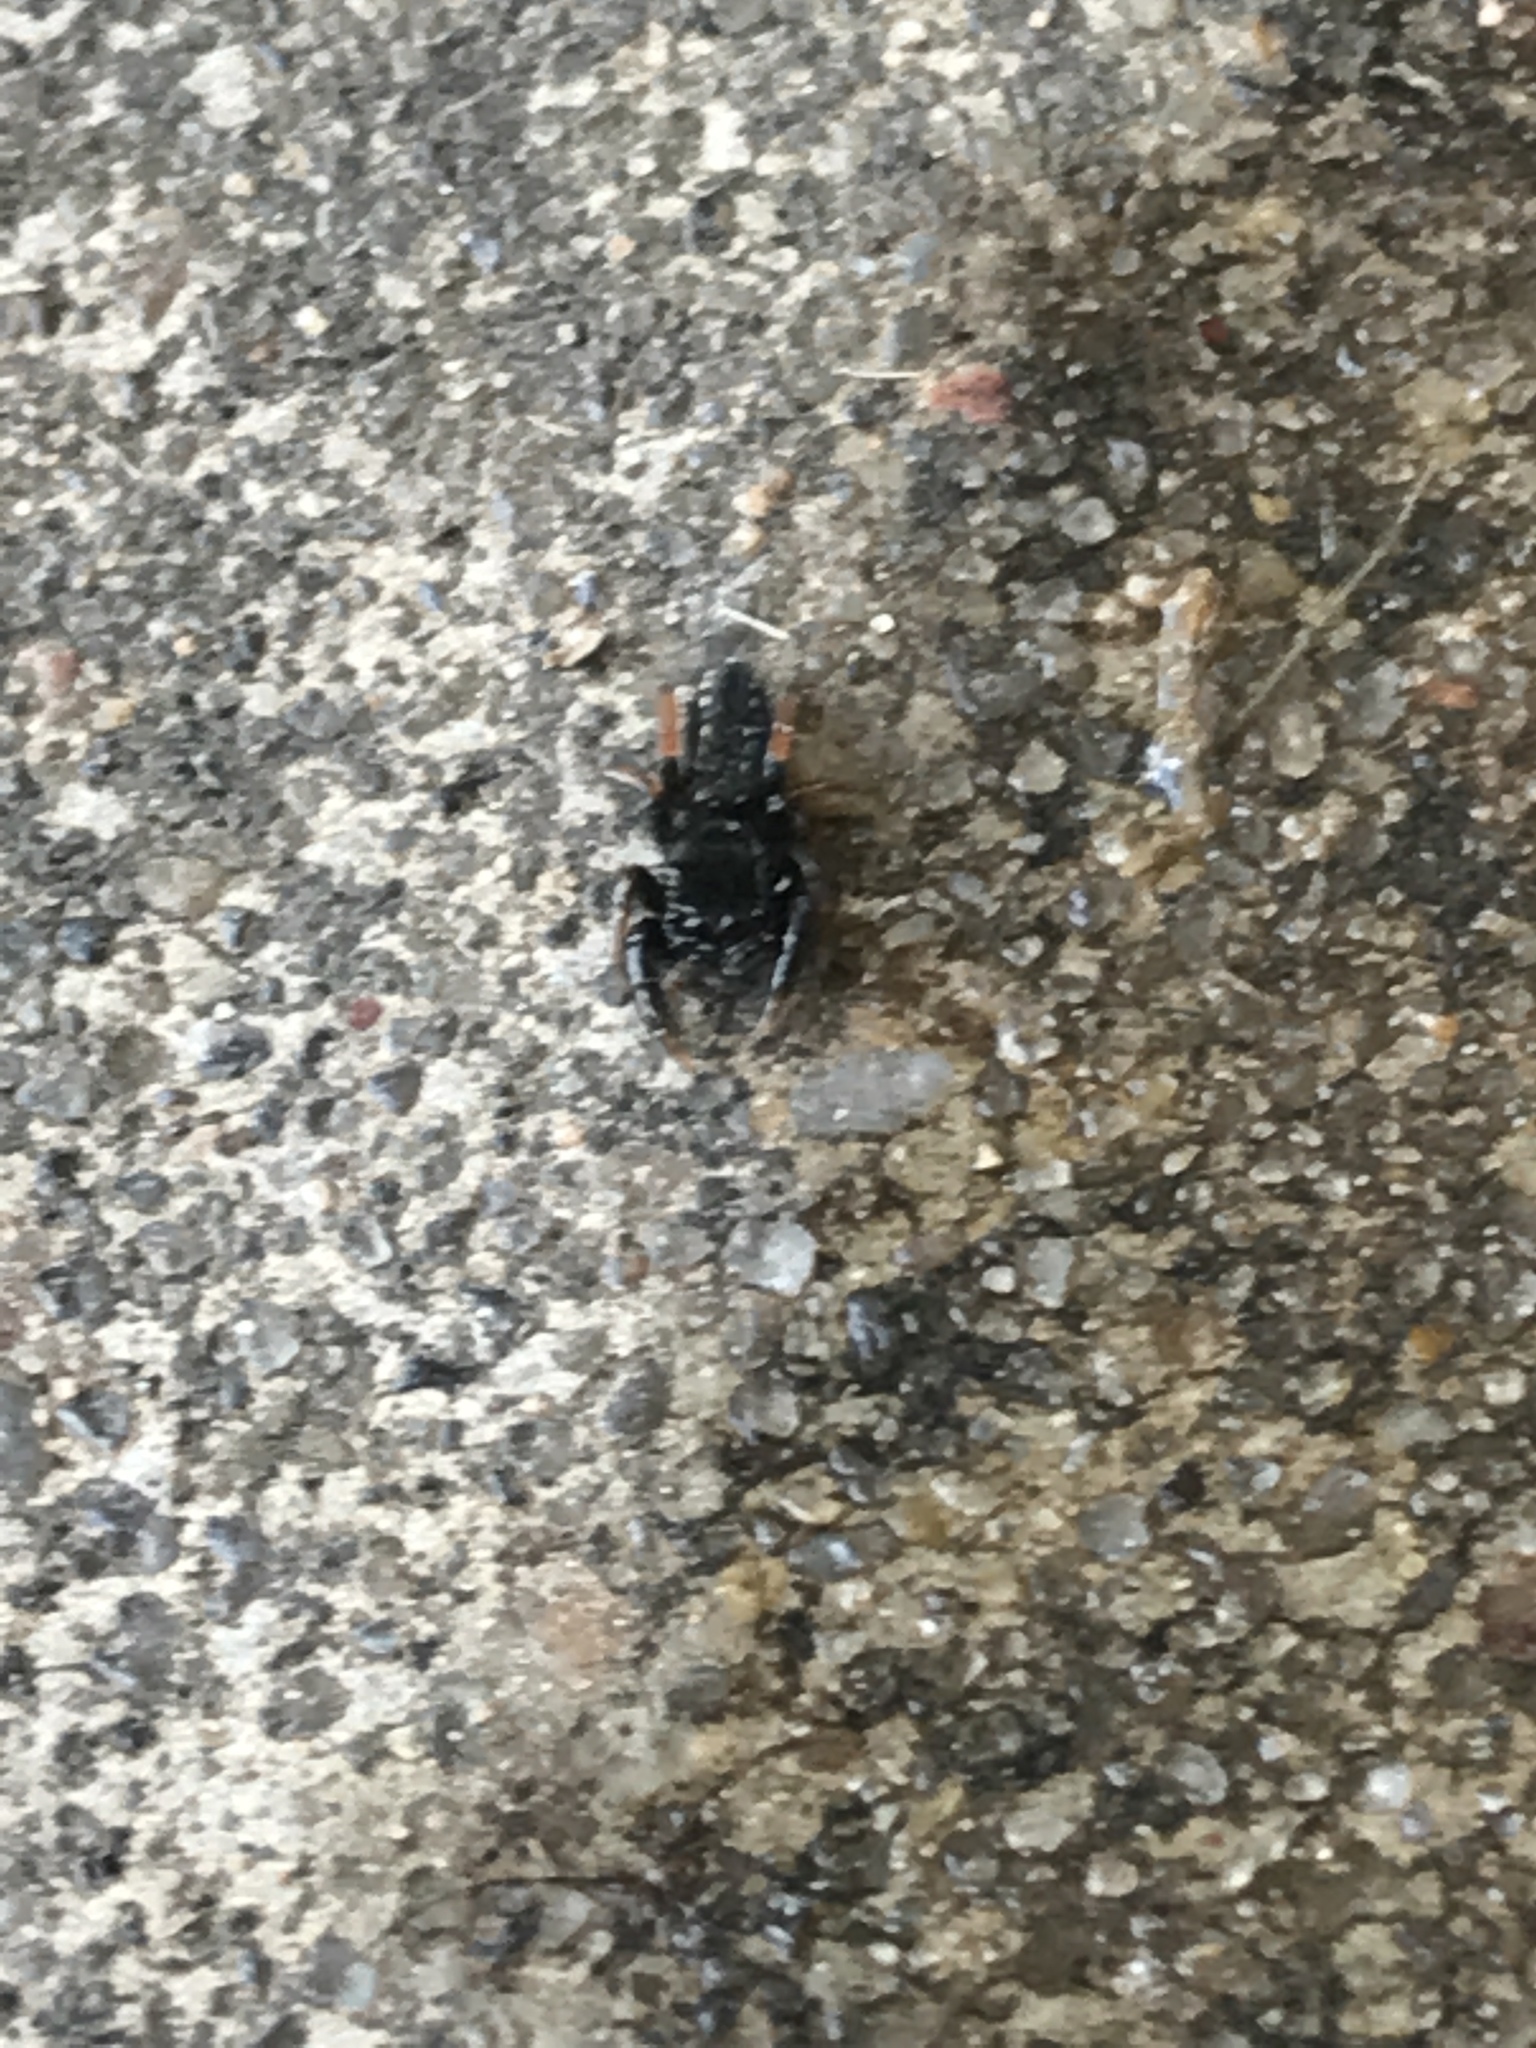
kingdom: Animalia
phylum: Arthropoda
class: Arachnida
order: Araneae
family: Salticidae
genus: Metacyrba
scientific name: Metacyrba taeniola
